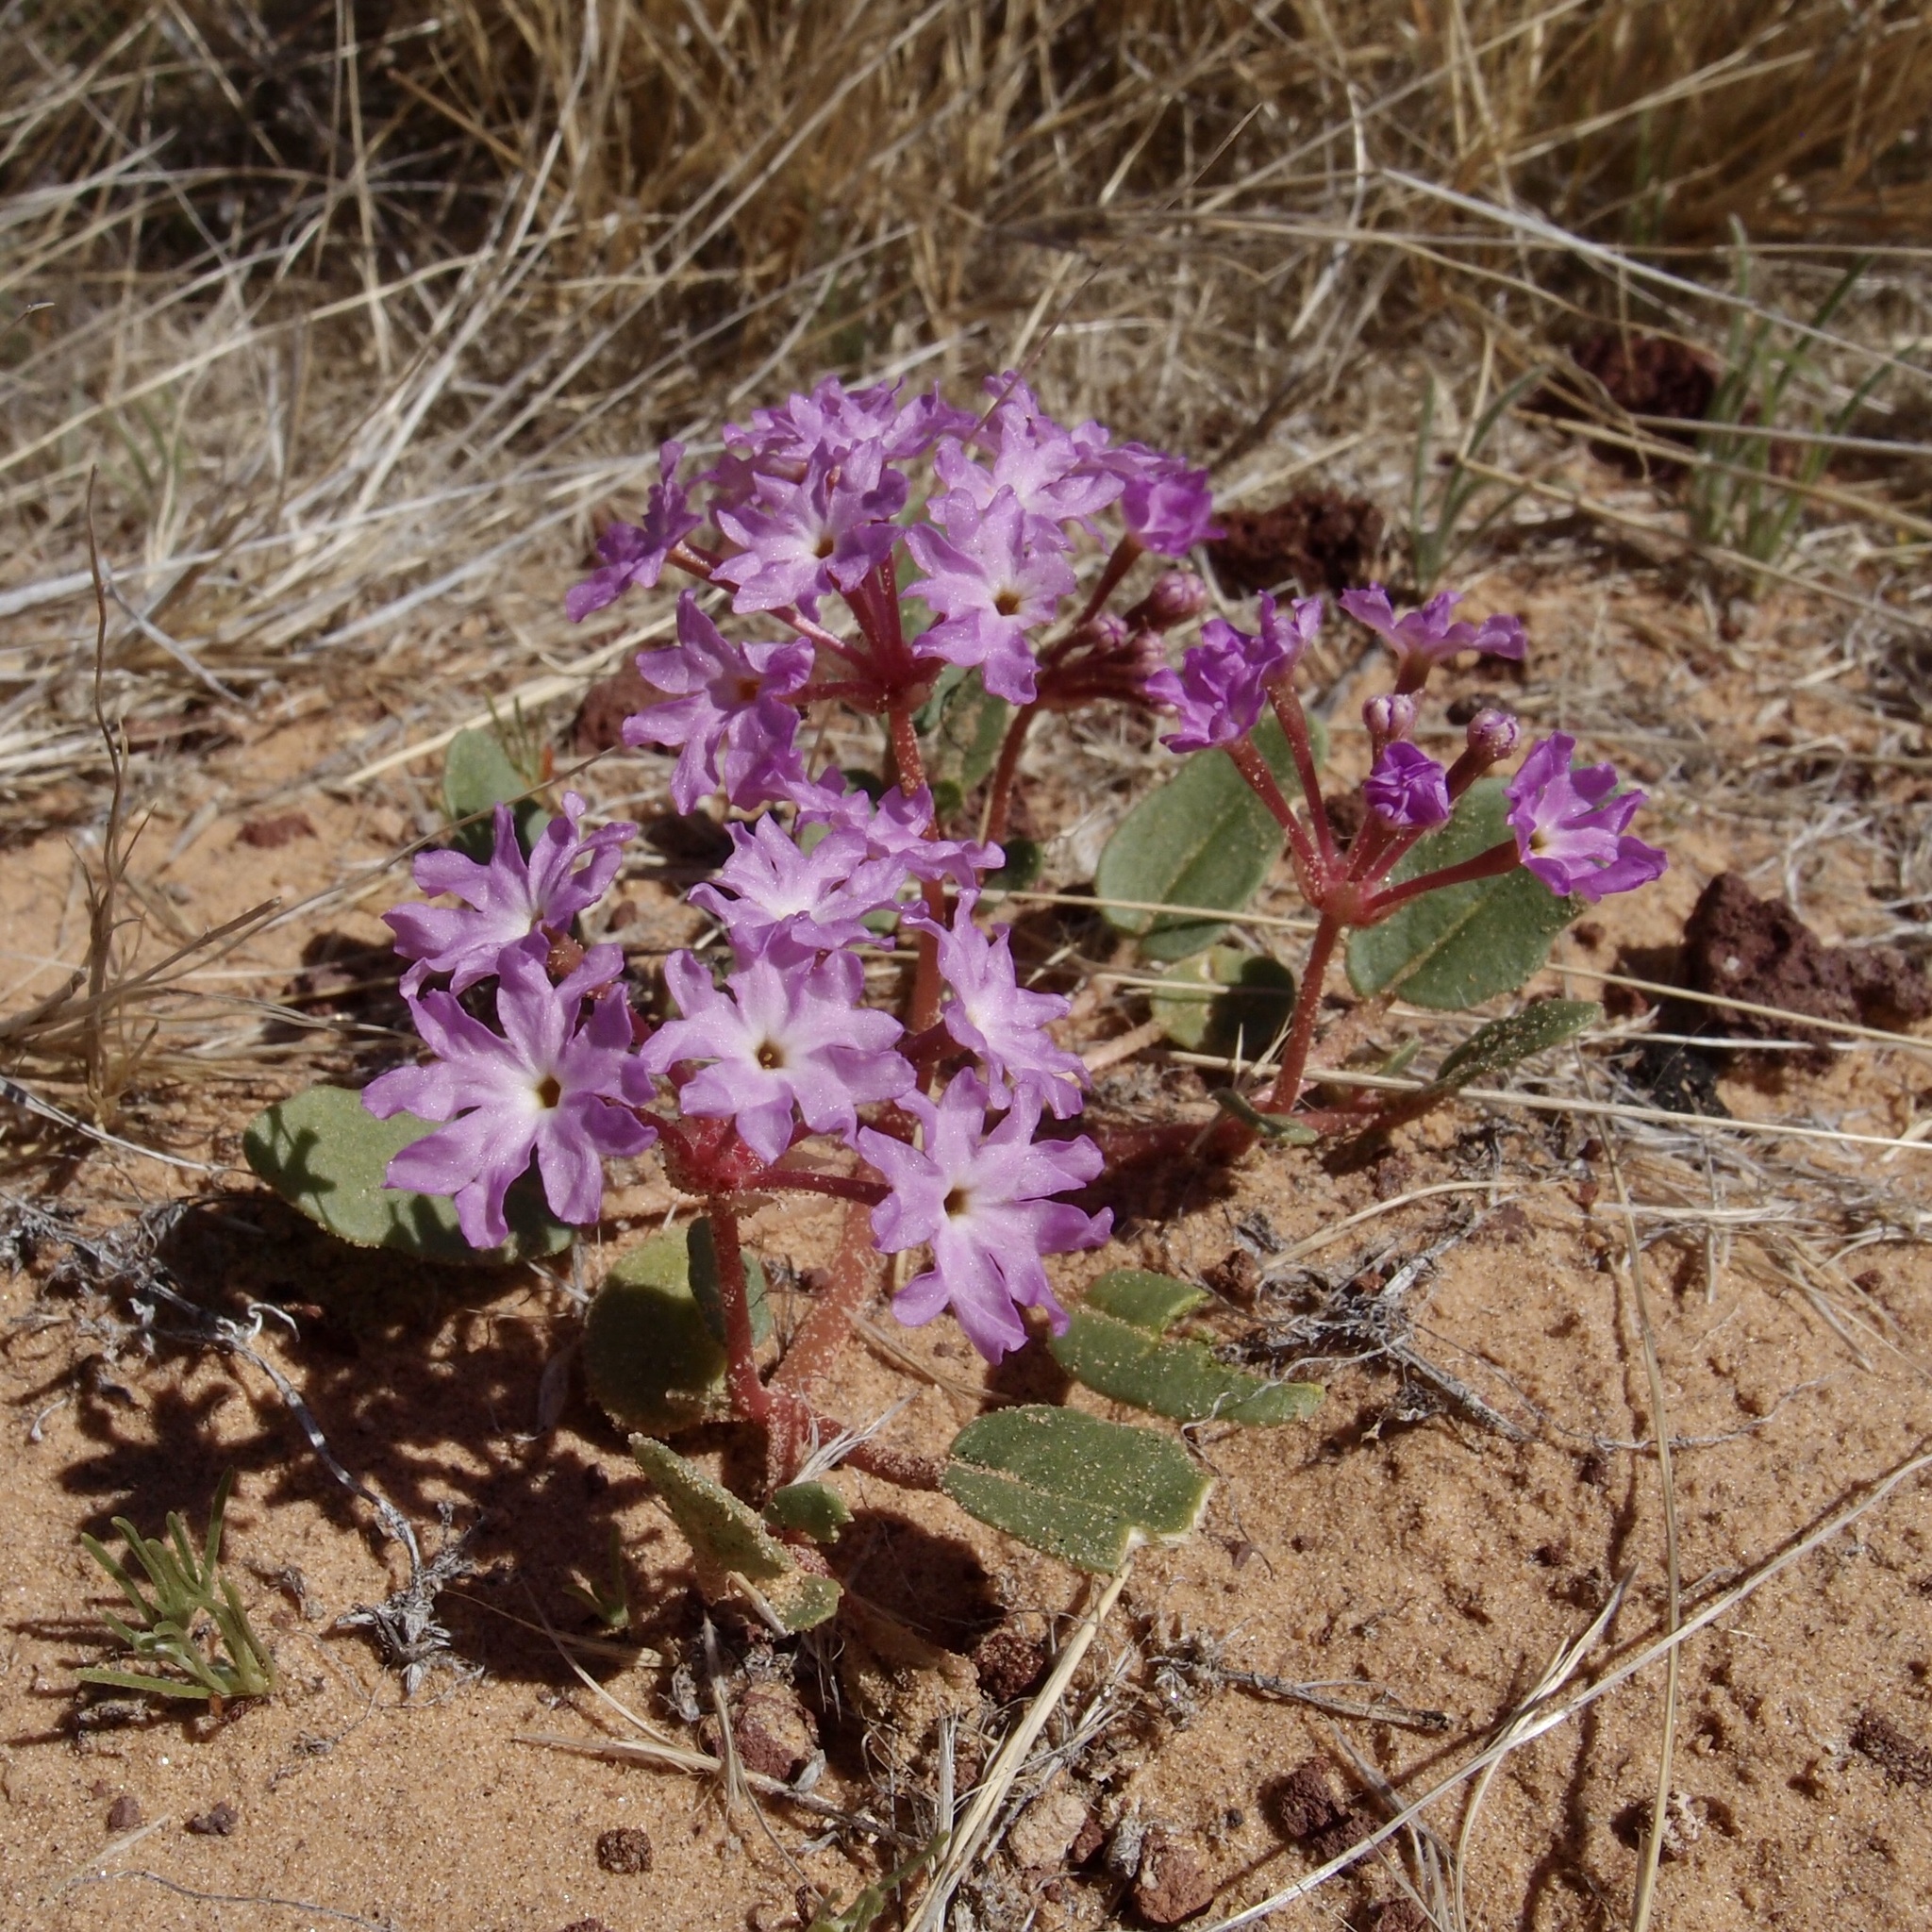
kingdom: Plantae
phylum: Tracheophyta
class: Magnoliopsida
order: Caryophyllales
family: Nyctaginaceae
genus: Abronia
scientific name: Abronia villosa
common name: Desert sand-verbena
